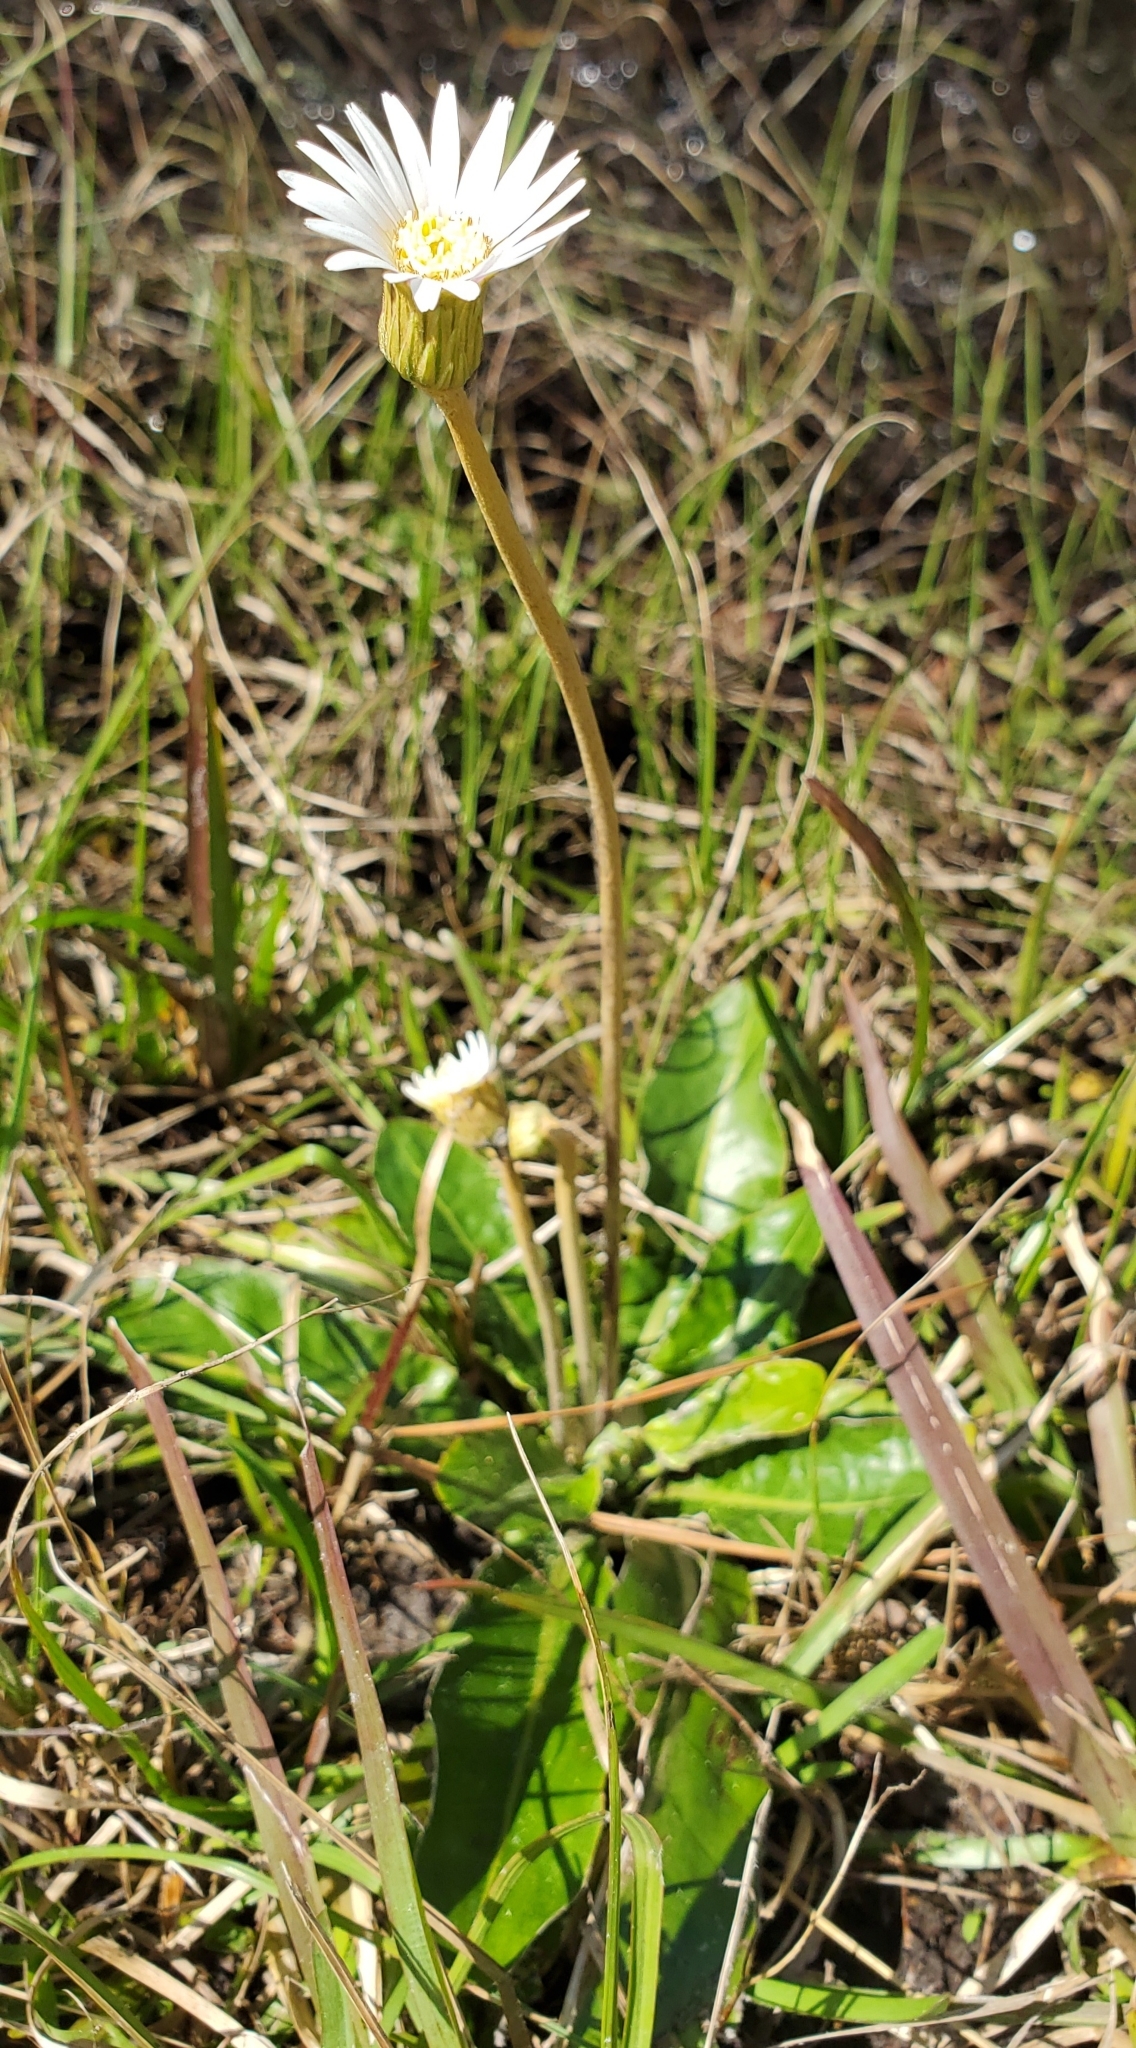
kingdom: Plantae
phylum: Tracheophyta
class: Magnoliopsida
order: Asterales
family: Asteraceae
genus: Chaptalia
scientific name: Chaptalia tomentosa
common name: Woolly sunbonnet
